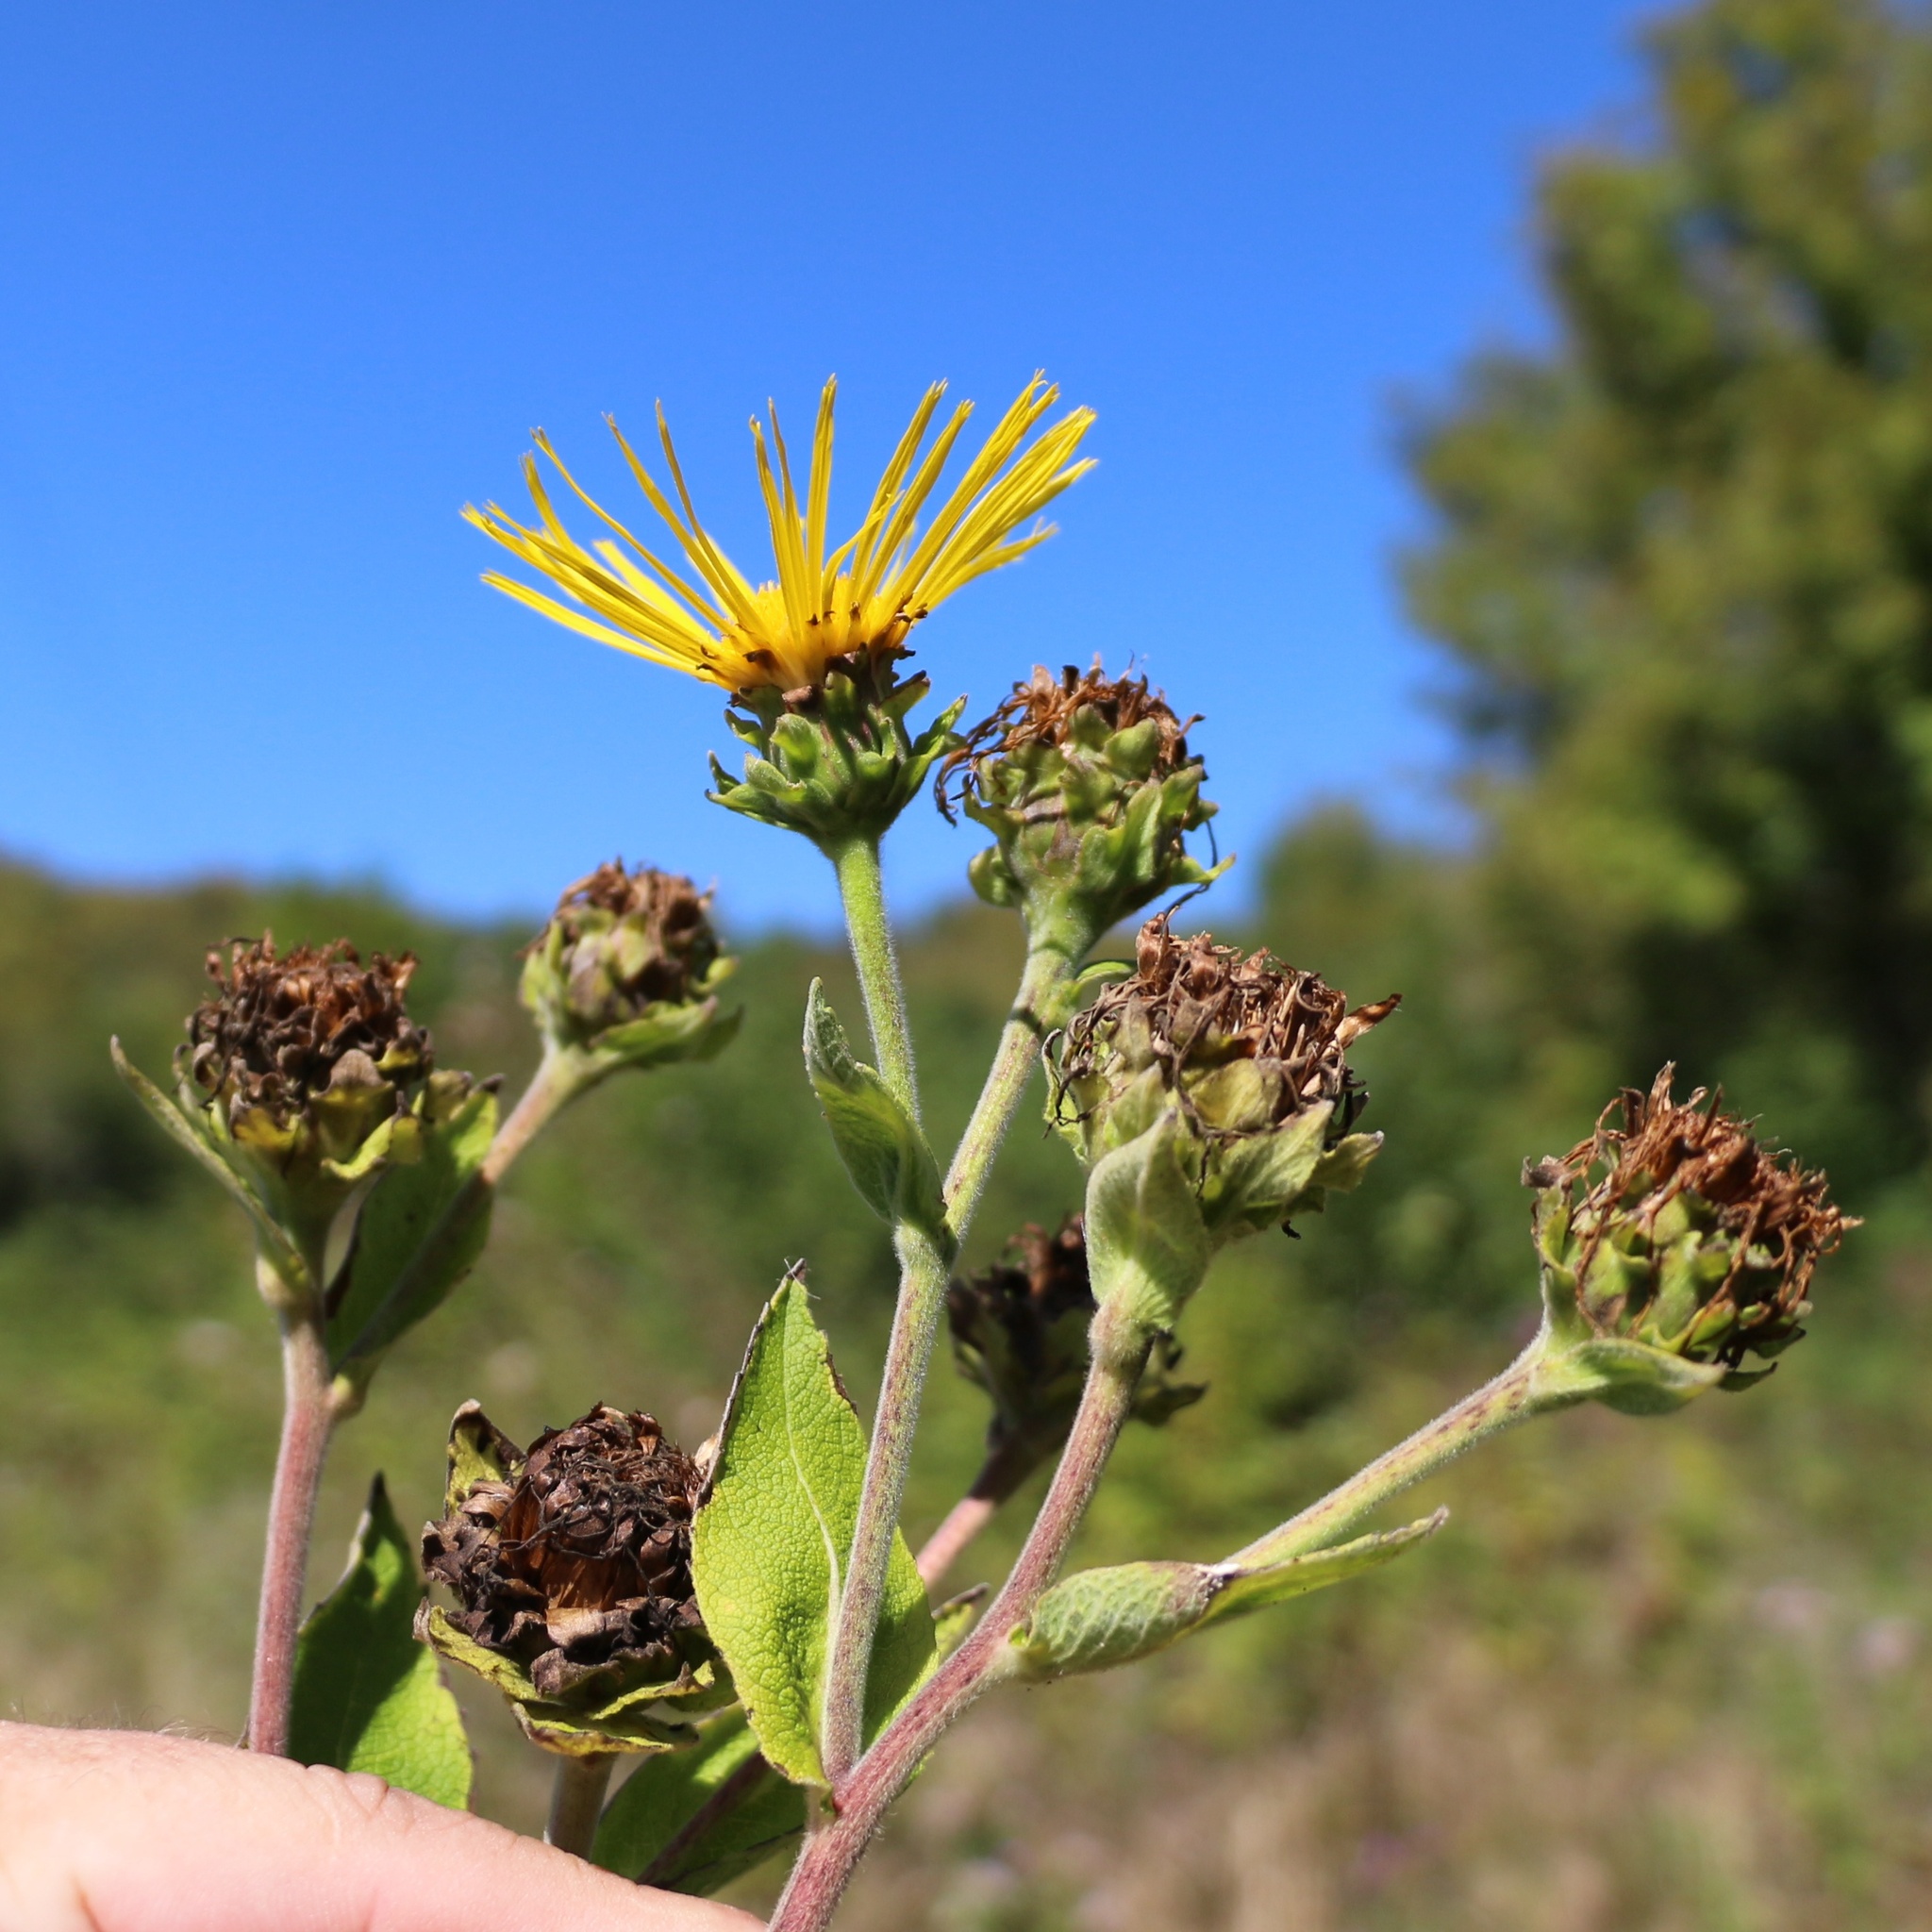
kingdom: Plantae
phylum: Tracheophyta
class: Magnoliopsida
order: Asterales
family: Asteraceae
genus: Inula
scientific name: Inula helenium
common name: Elecampane
